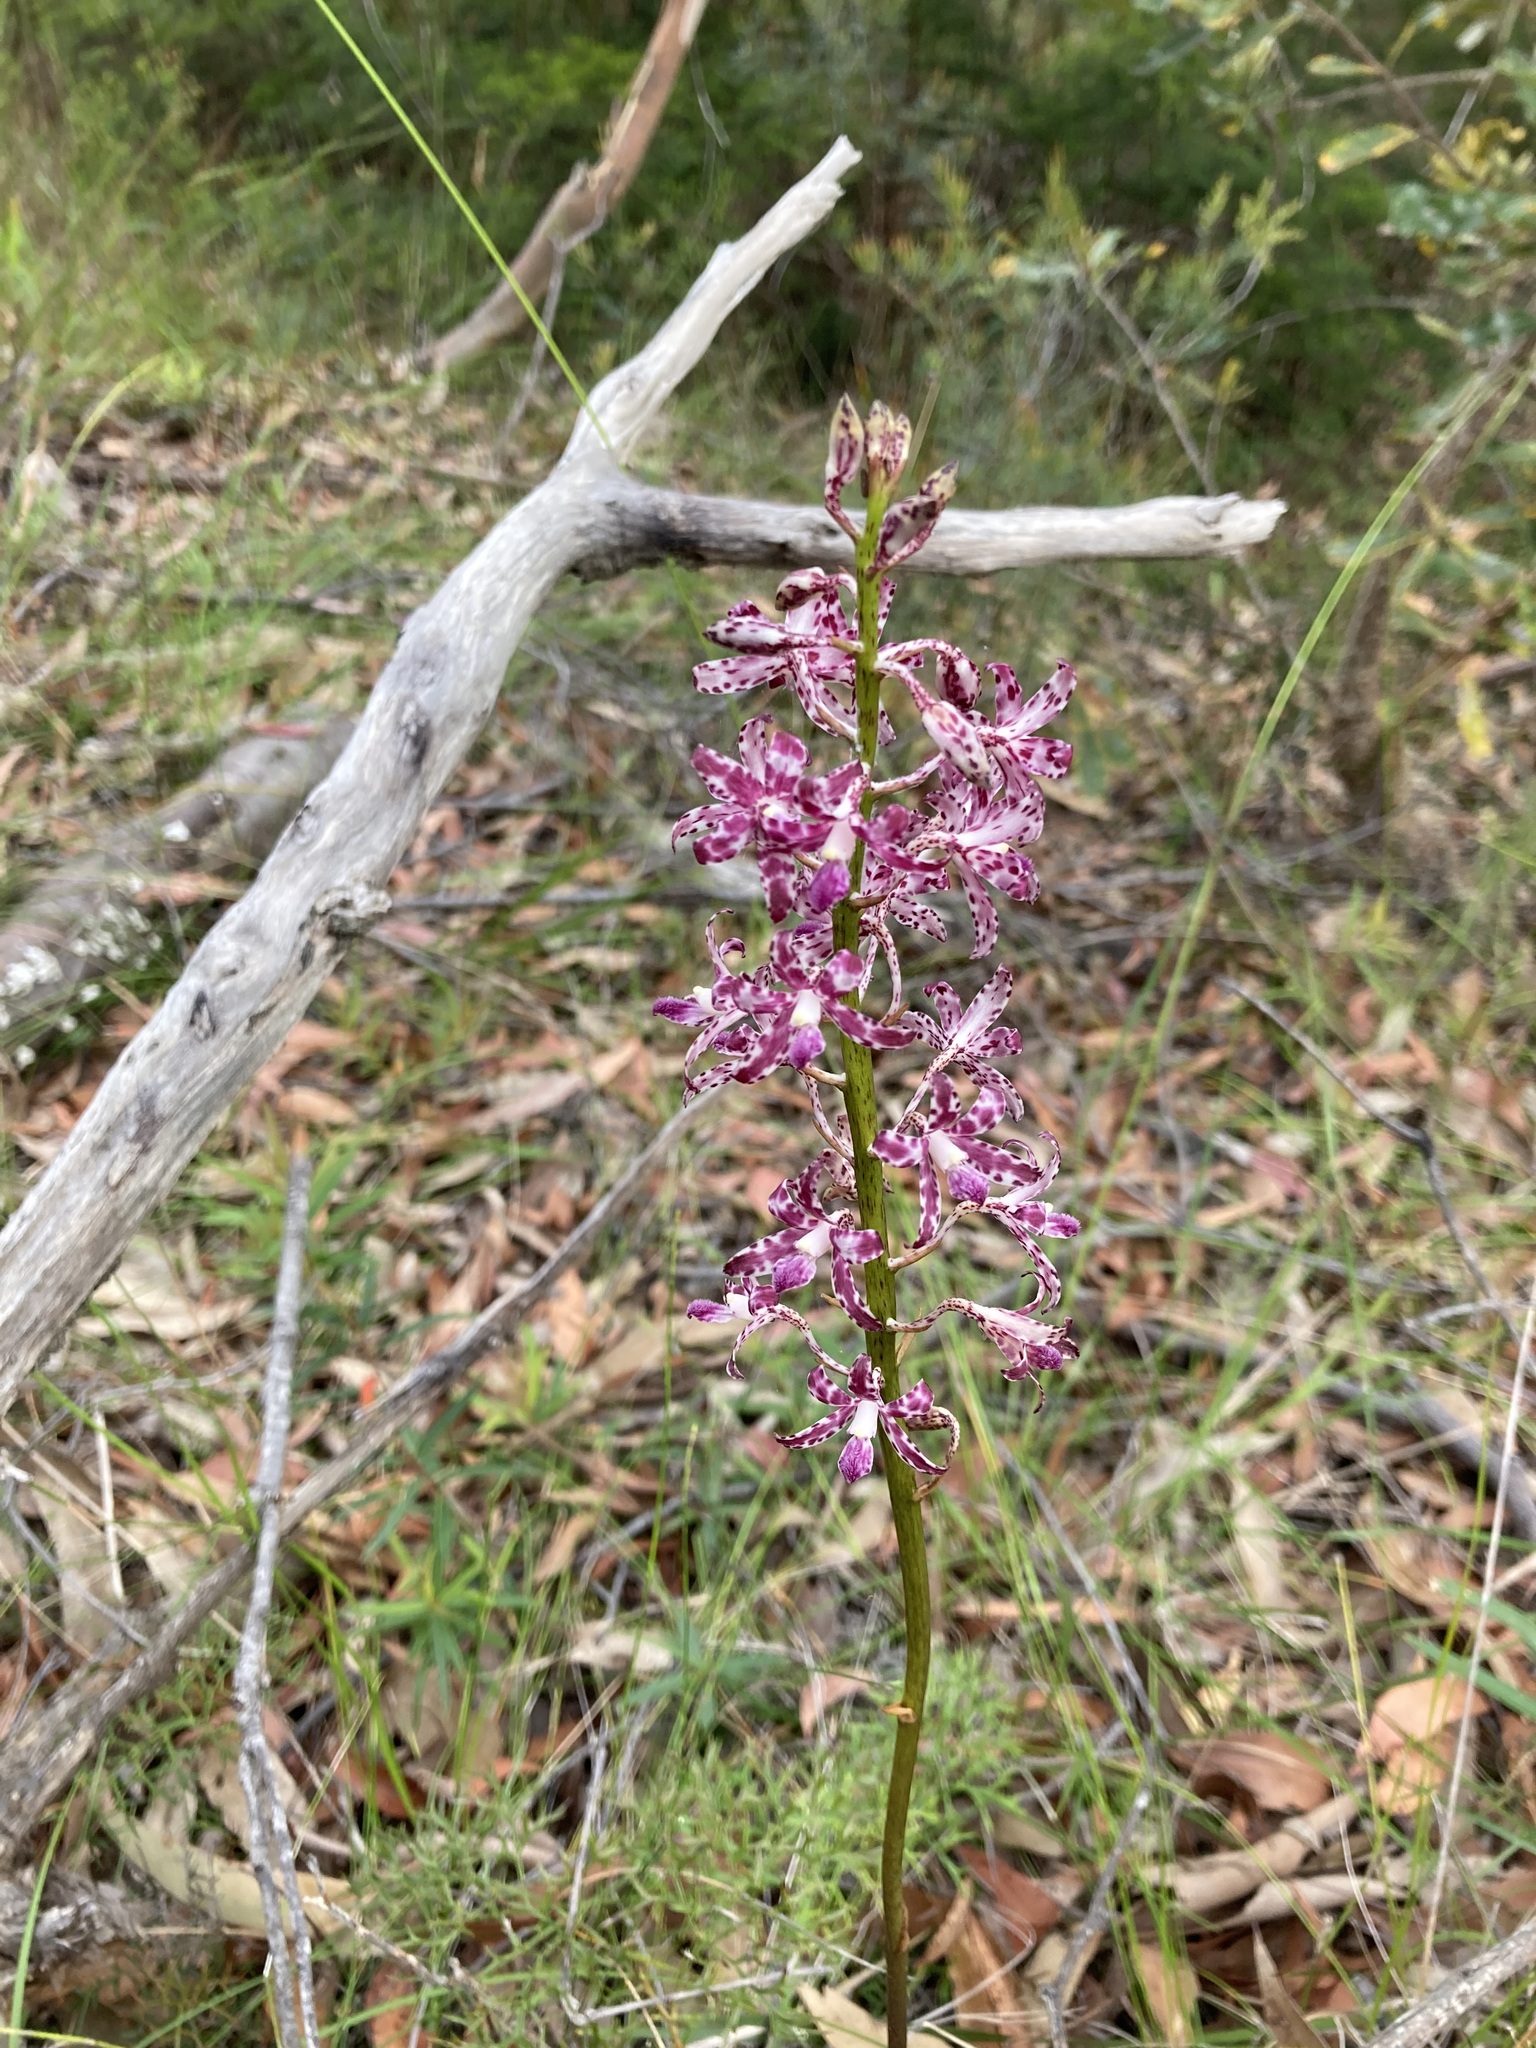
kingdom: Plantae
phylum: Tracheophyta
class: Liliopsida
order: Asparagales
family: Orchidaceae
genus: Dipodium
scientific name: Dipodium variegatum
